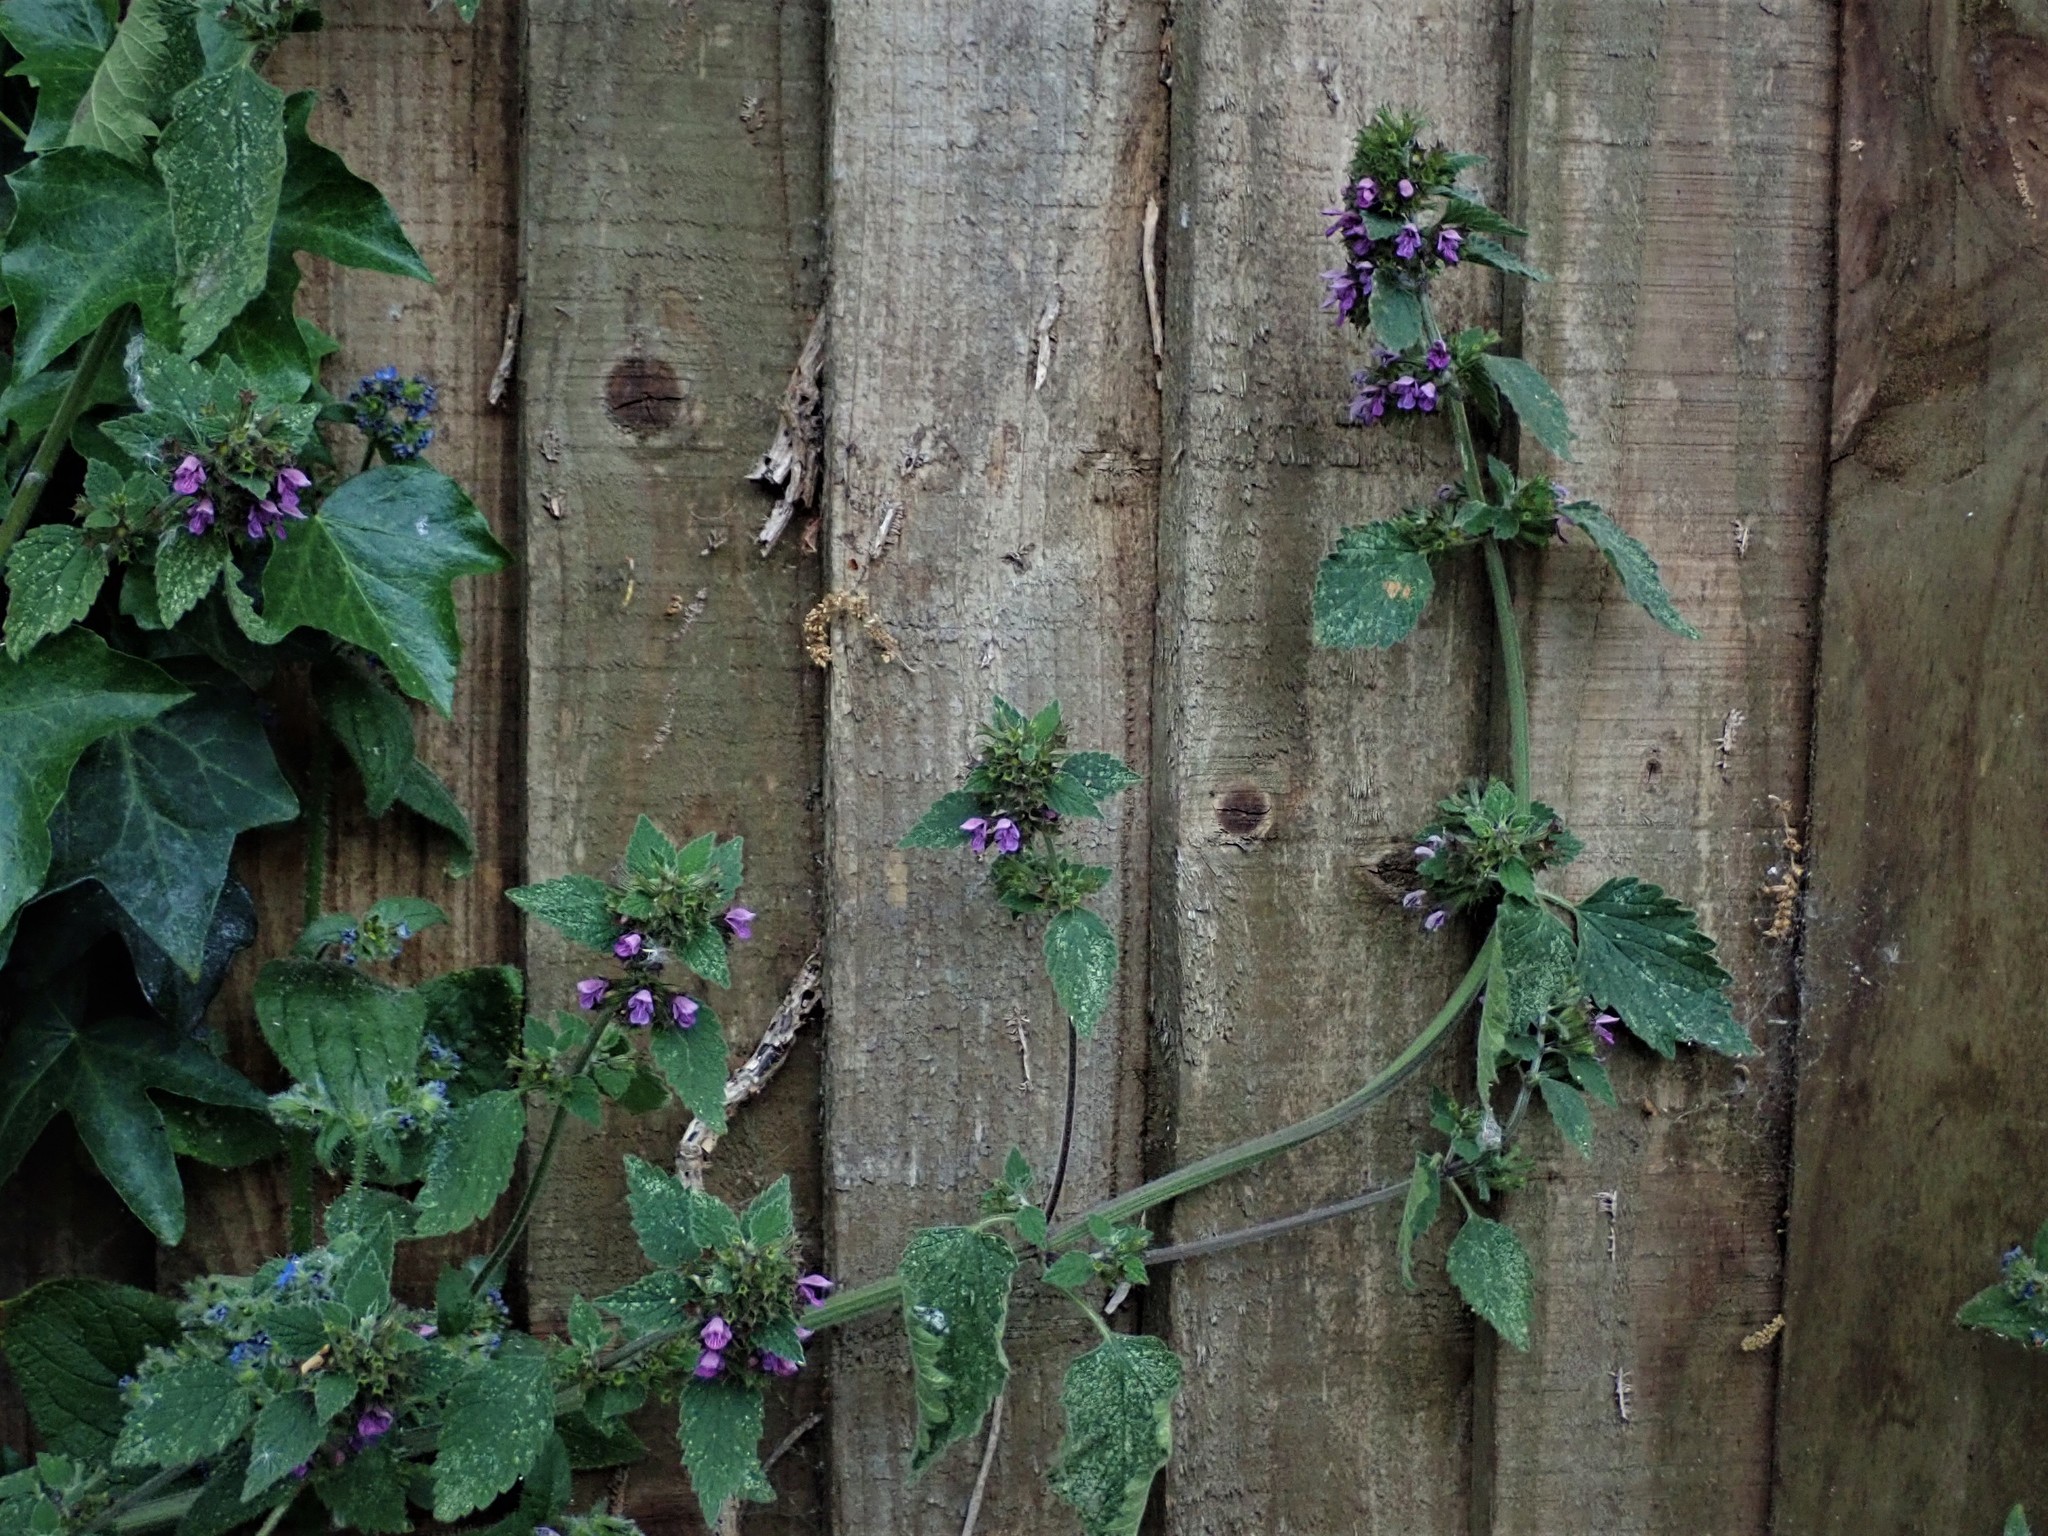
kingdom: Plantae
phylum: Tracheophyta
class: Magnoliopsida
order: Lamiales
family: Lamiaceae
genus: Ballota
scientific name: Ballota nigra
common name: Black horehound
